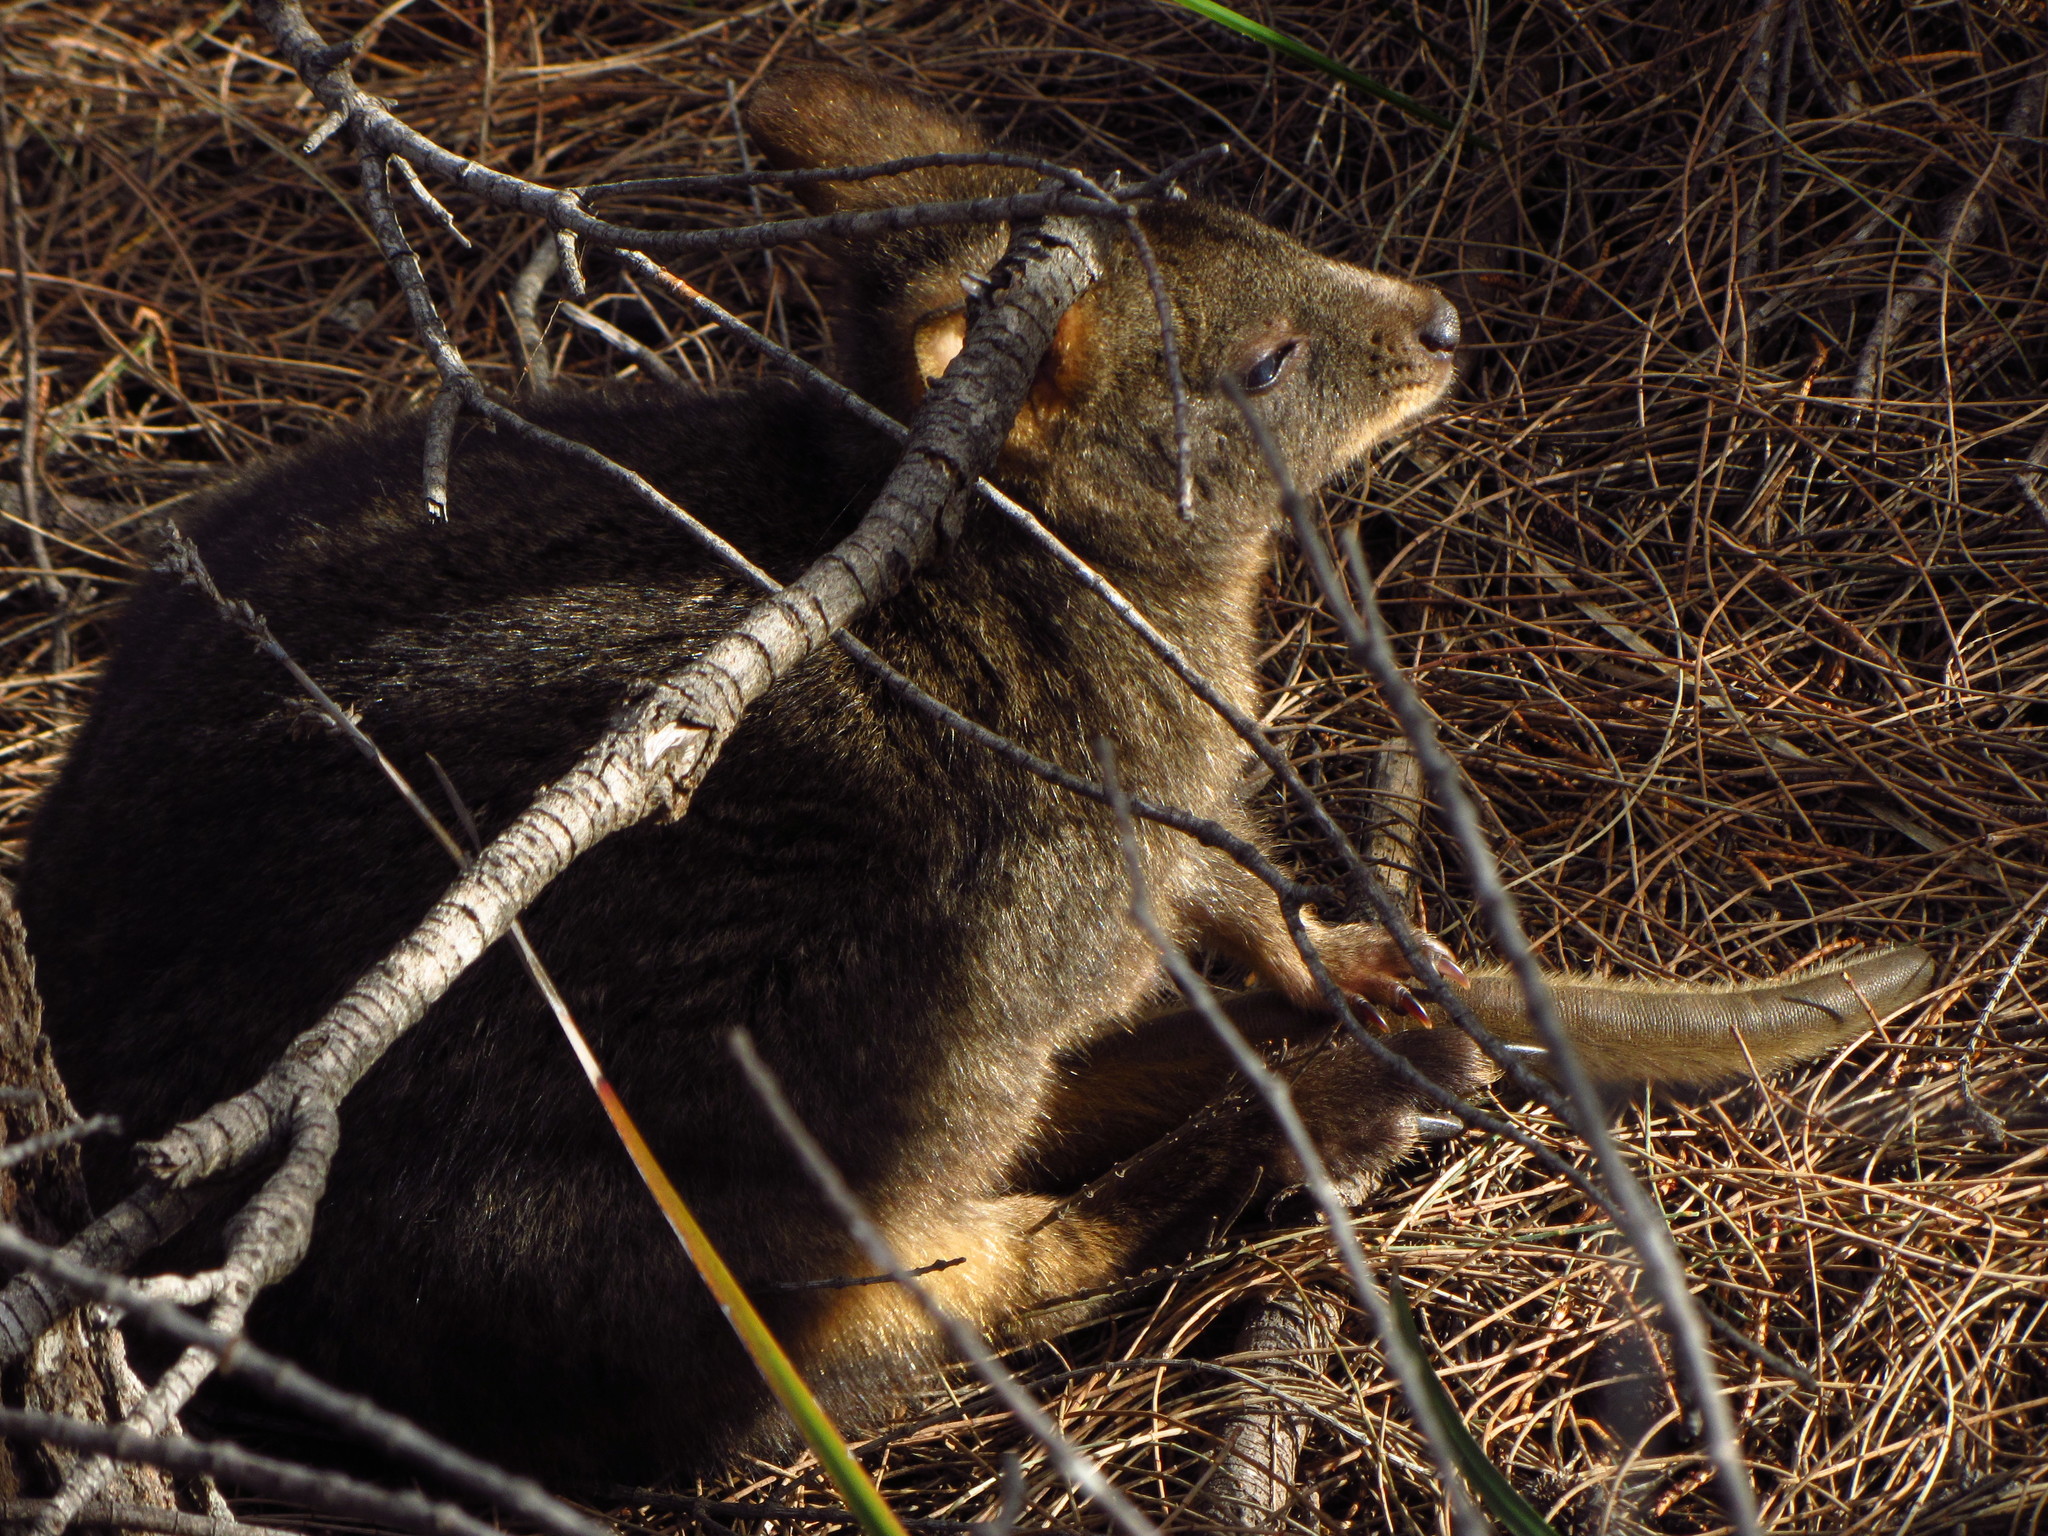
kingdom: Animalia
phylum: Chordata
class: Mammalia
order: Diprotodontia
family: Macropodidae
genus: Thylogale
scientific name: Thylogale billardierii
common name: Tasmanian pademelon
